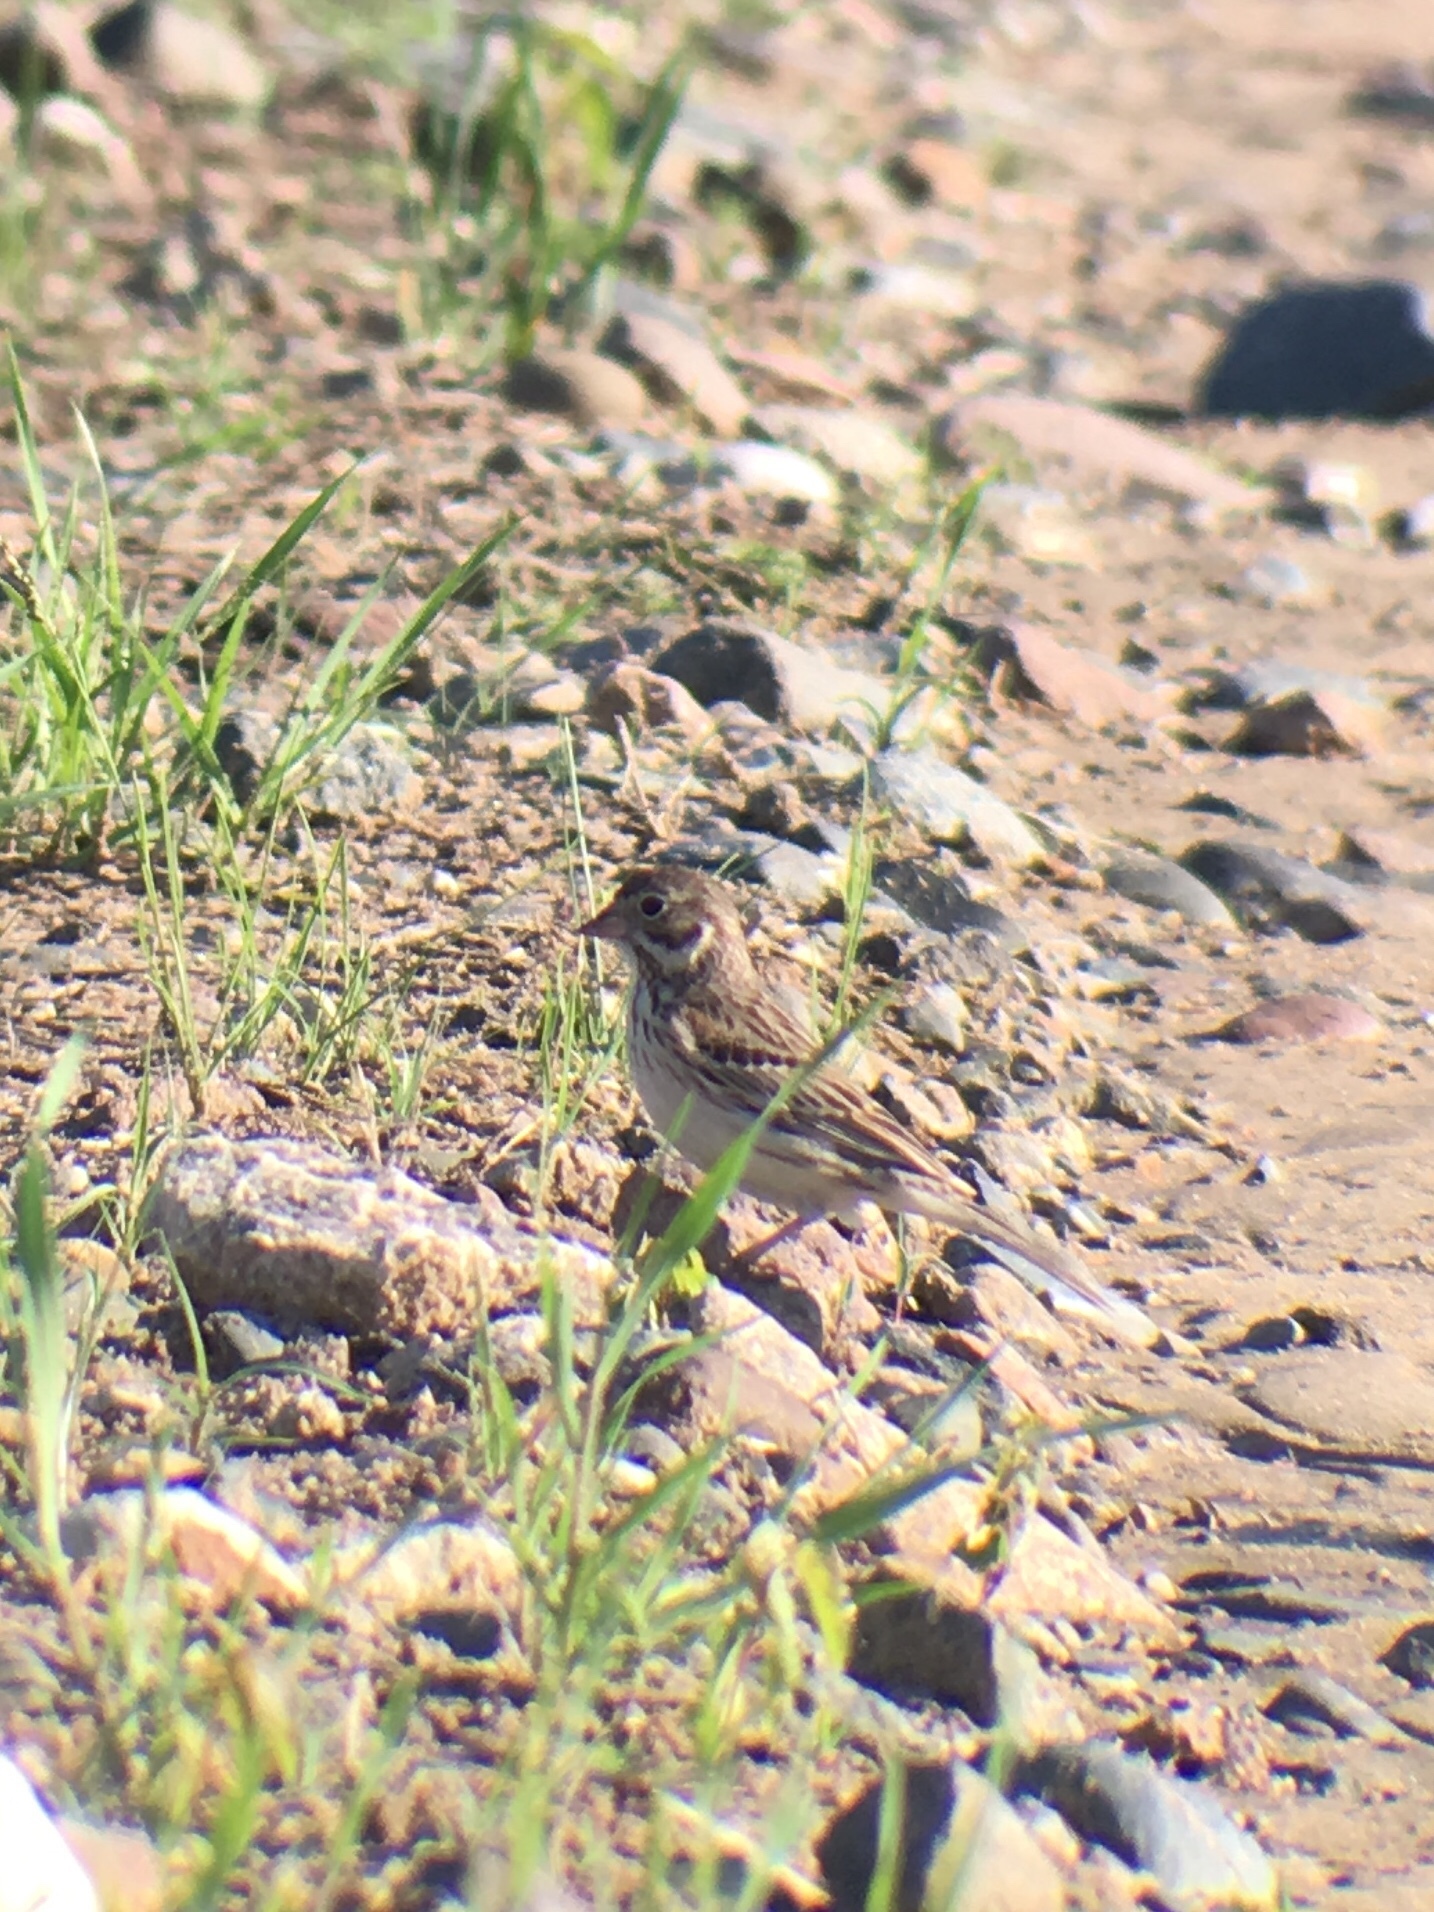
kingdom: Animalia
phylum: Chordata
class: Aves
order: Passeriformes
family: Passerellidae
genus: Pooecetes
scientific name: Pooecetes gramineus
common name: Vesper sparrow
